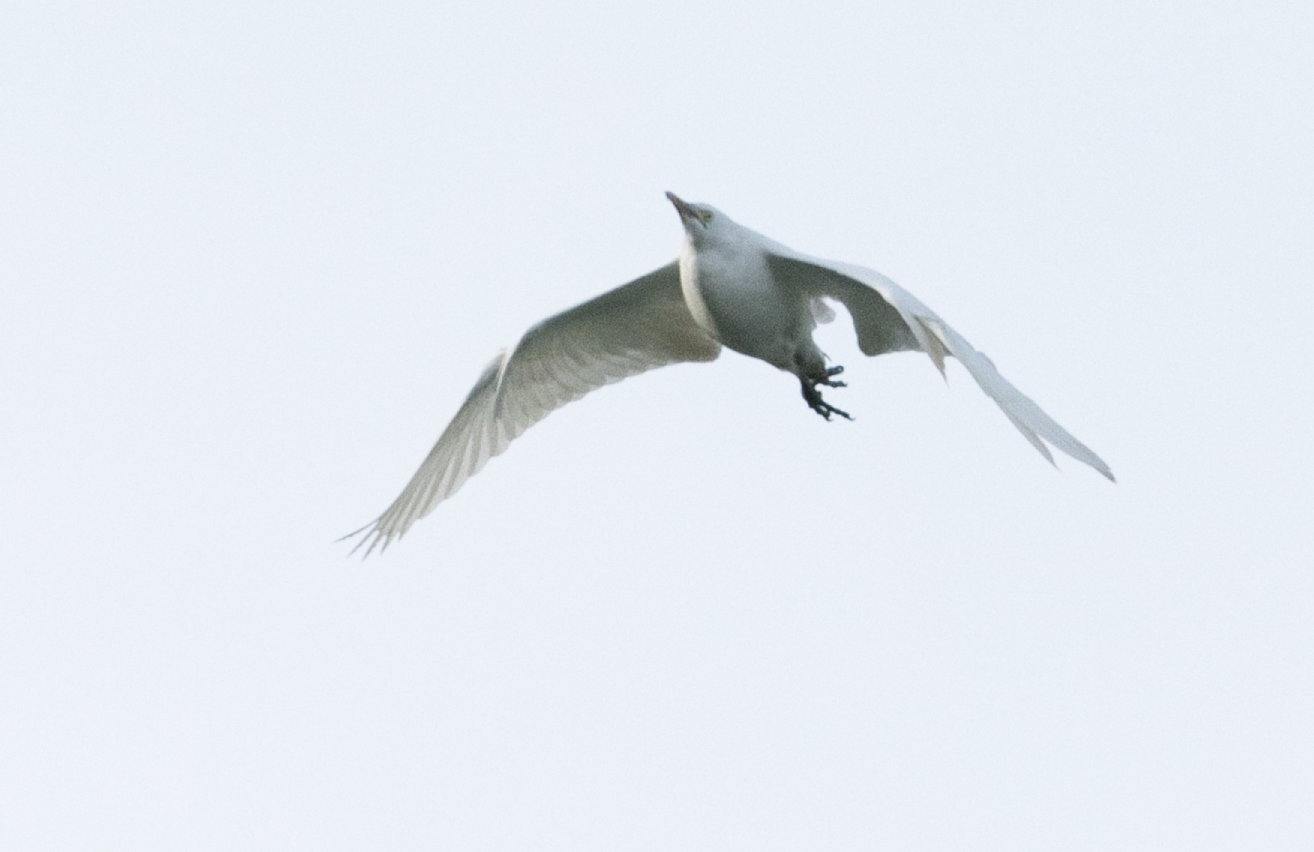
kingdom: Animalia
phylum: Chordata
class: Aves
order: Pelecaniformes
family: Ardeidae
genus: Bubulcus
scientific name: Bubulcus ibis
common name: Cattle egret
